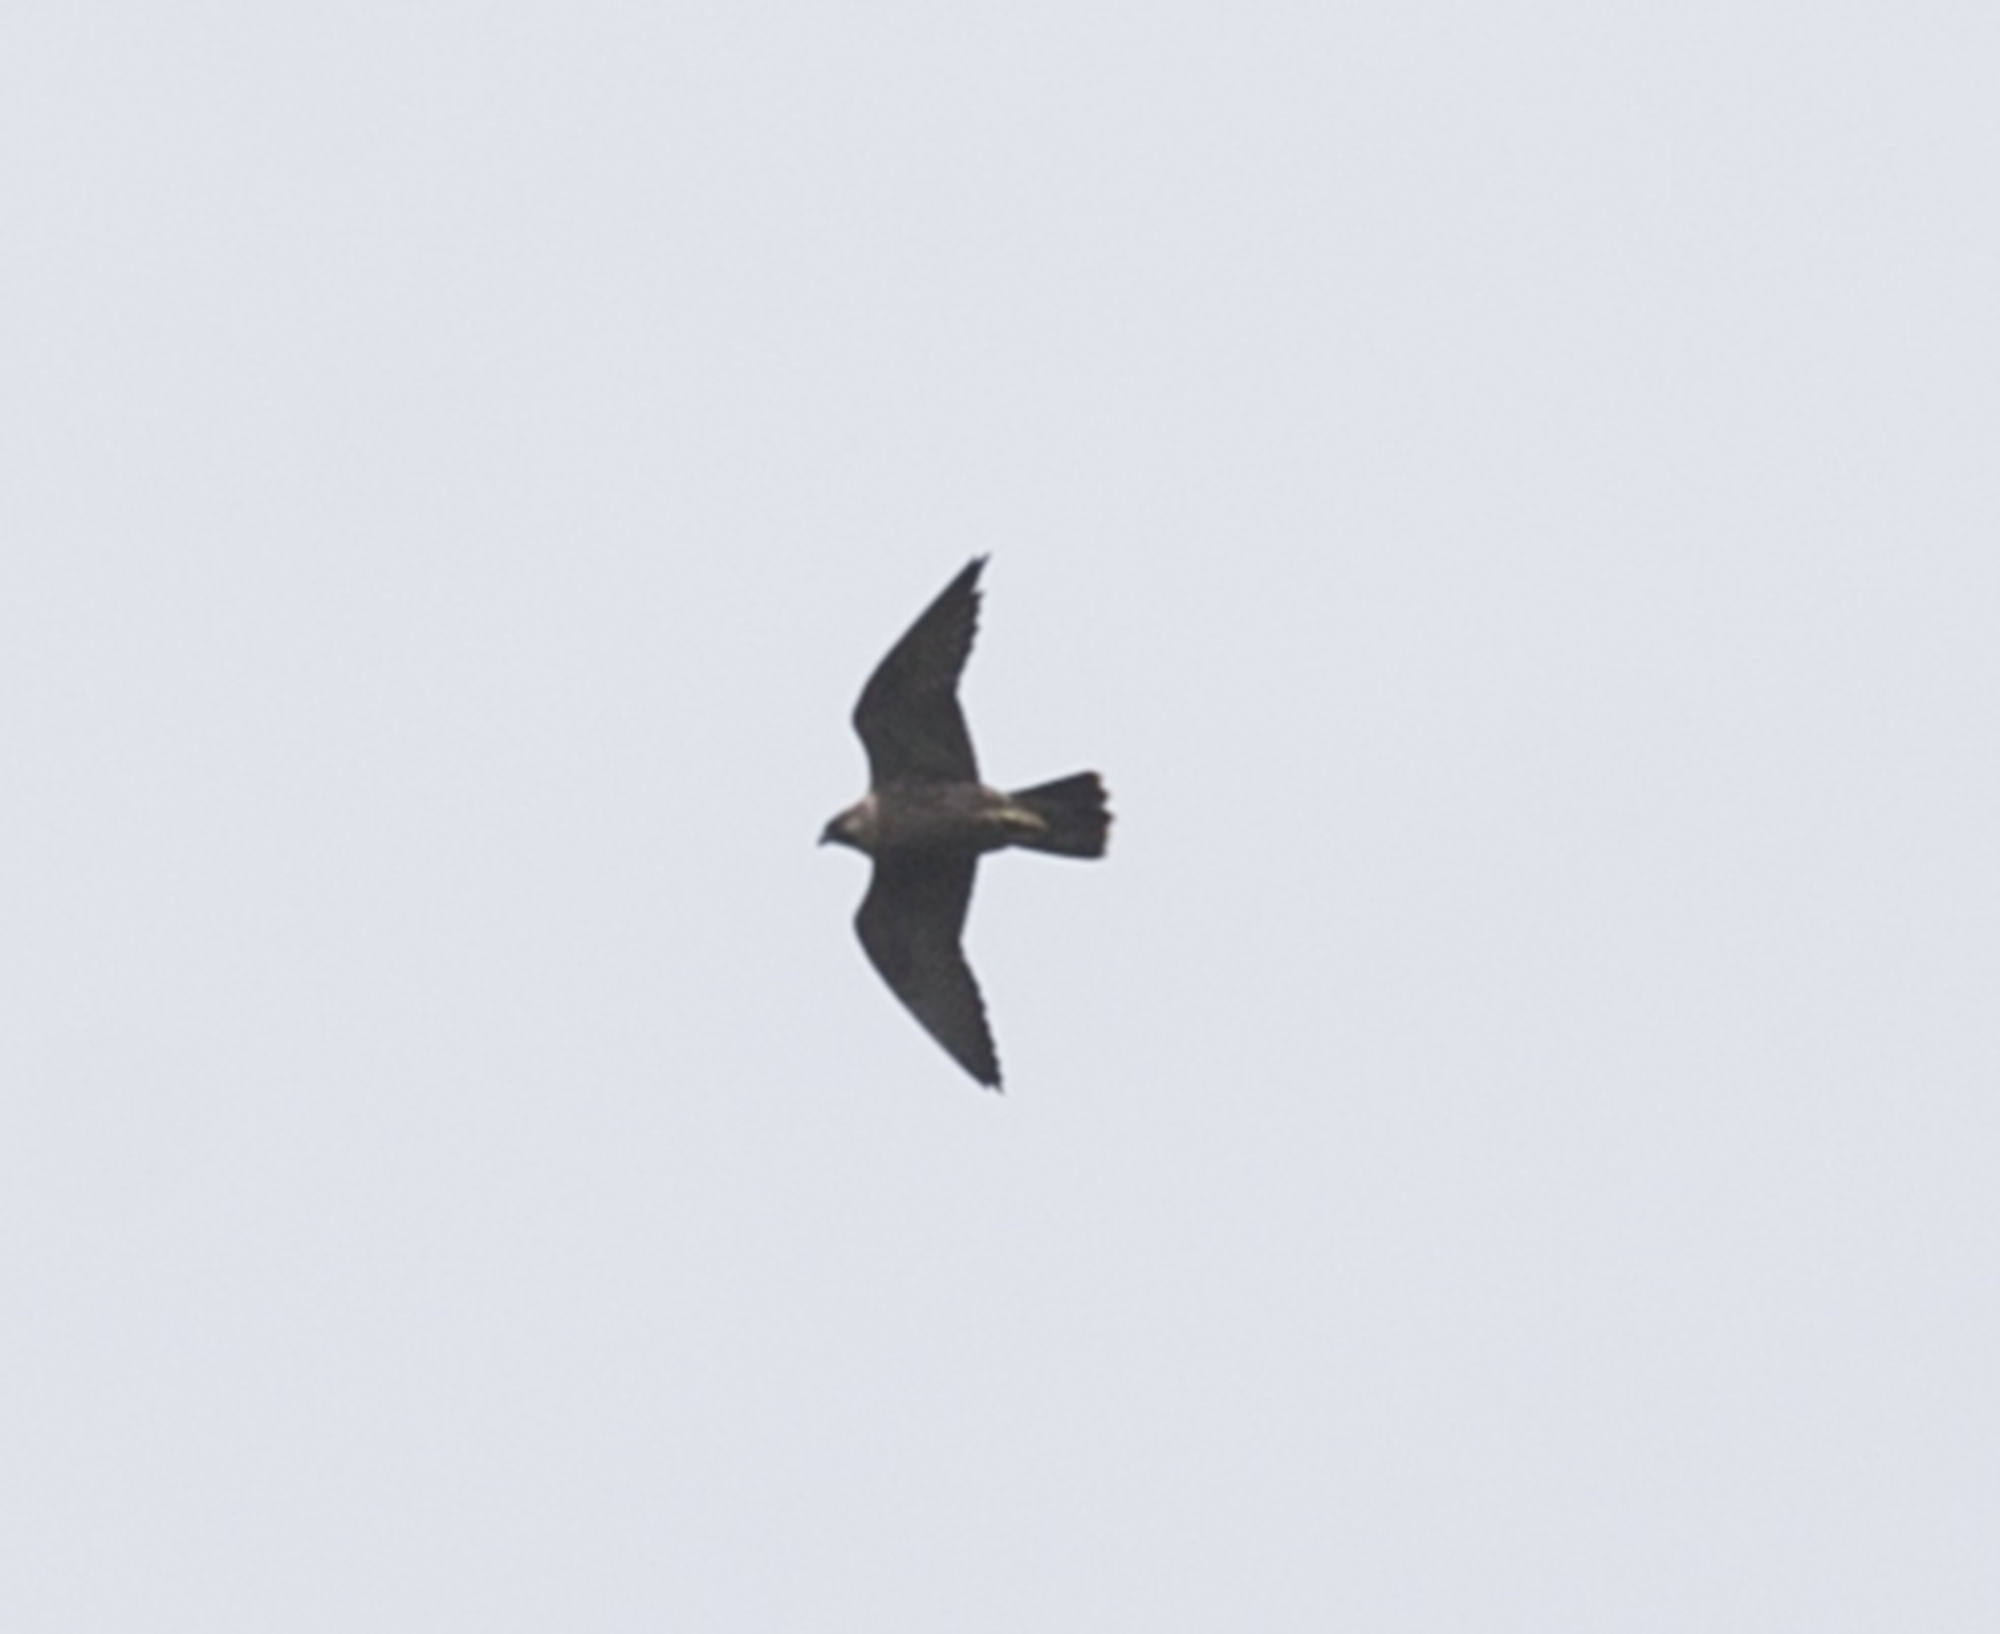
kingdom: Animalia
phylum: Chordata
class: Aves
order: Falconiformes
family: Falconidae
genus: Falco
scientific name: Falco peregrinus
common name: Peregrine falcon
